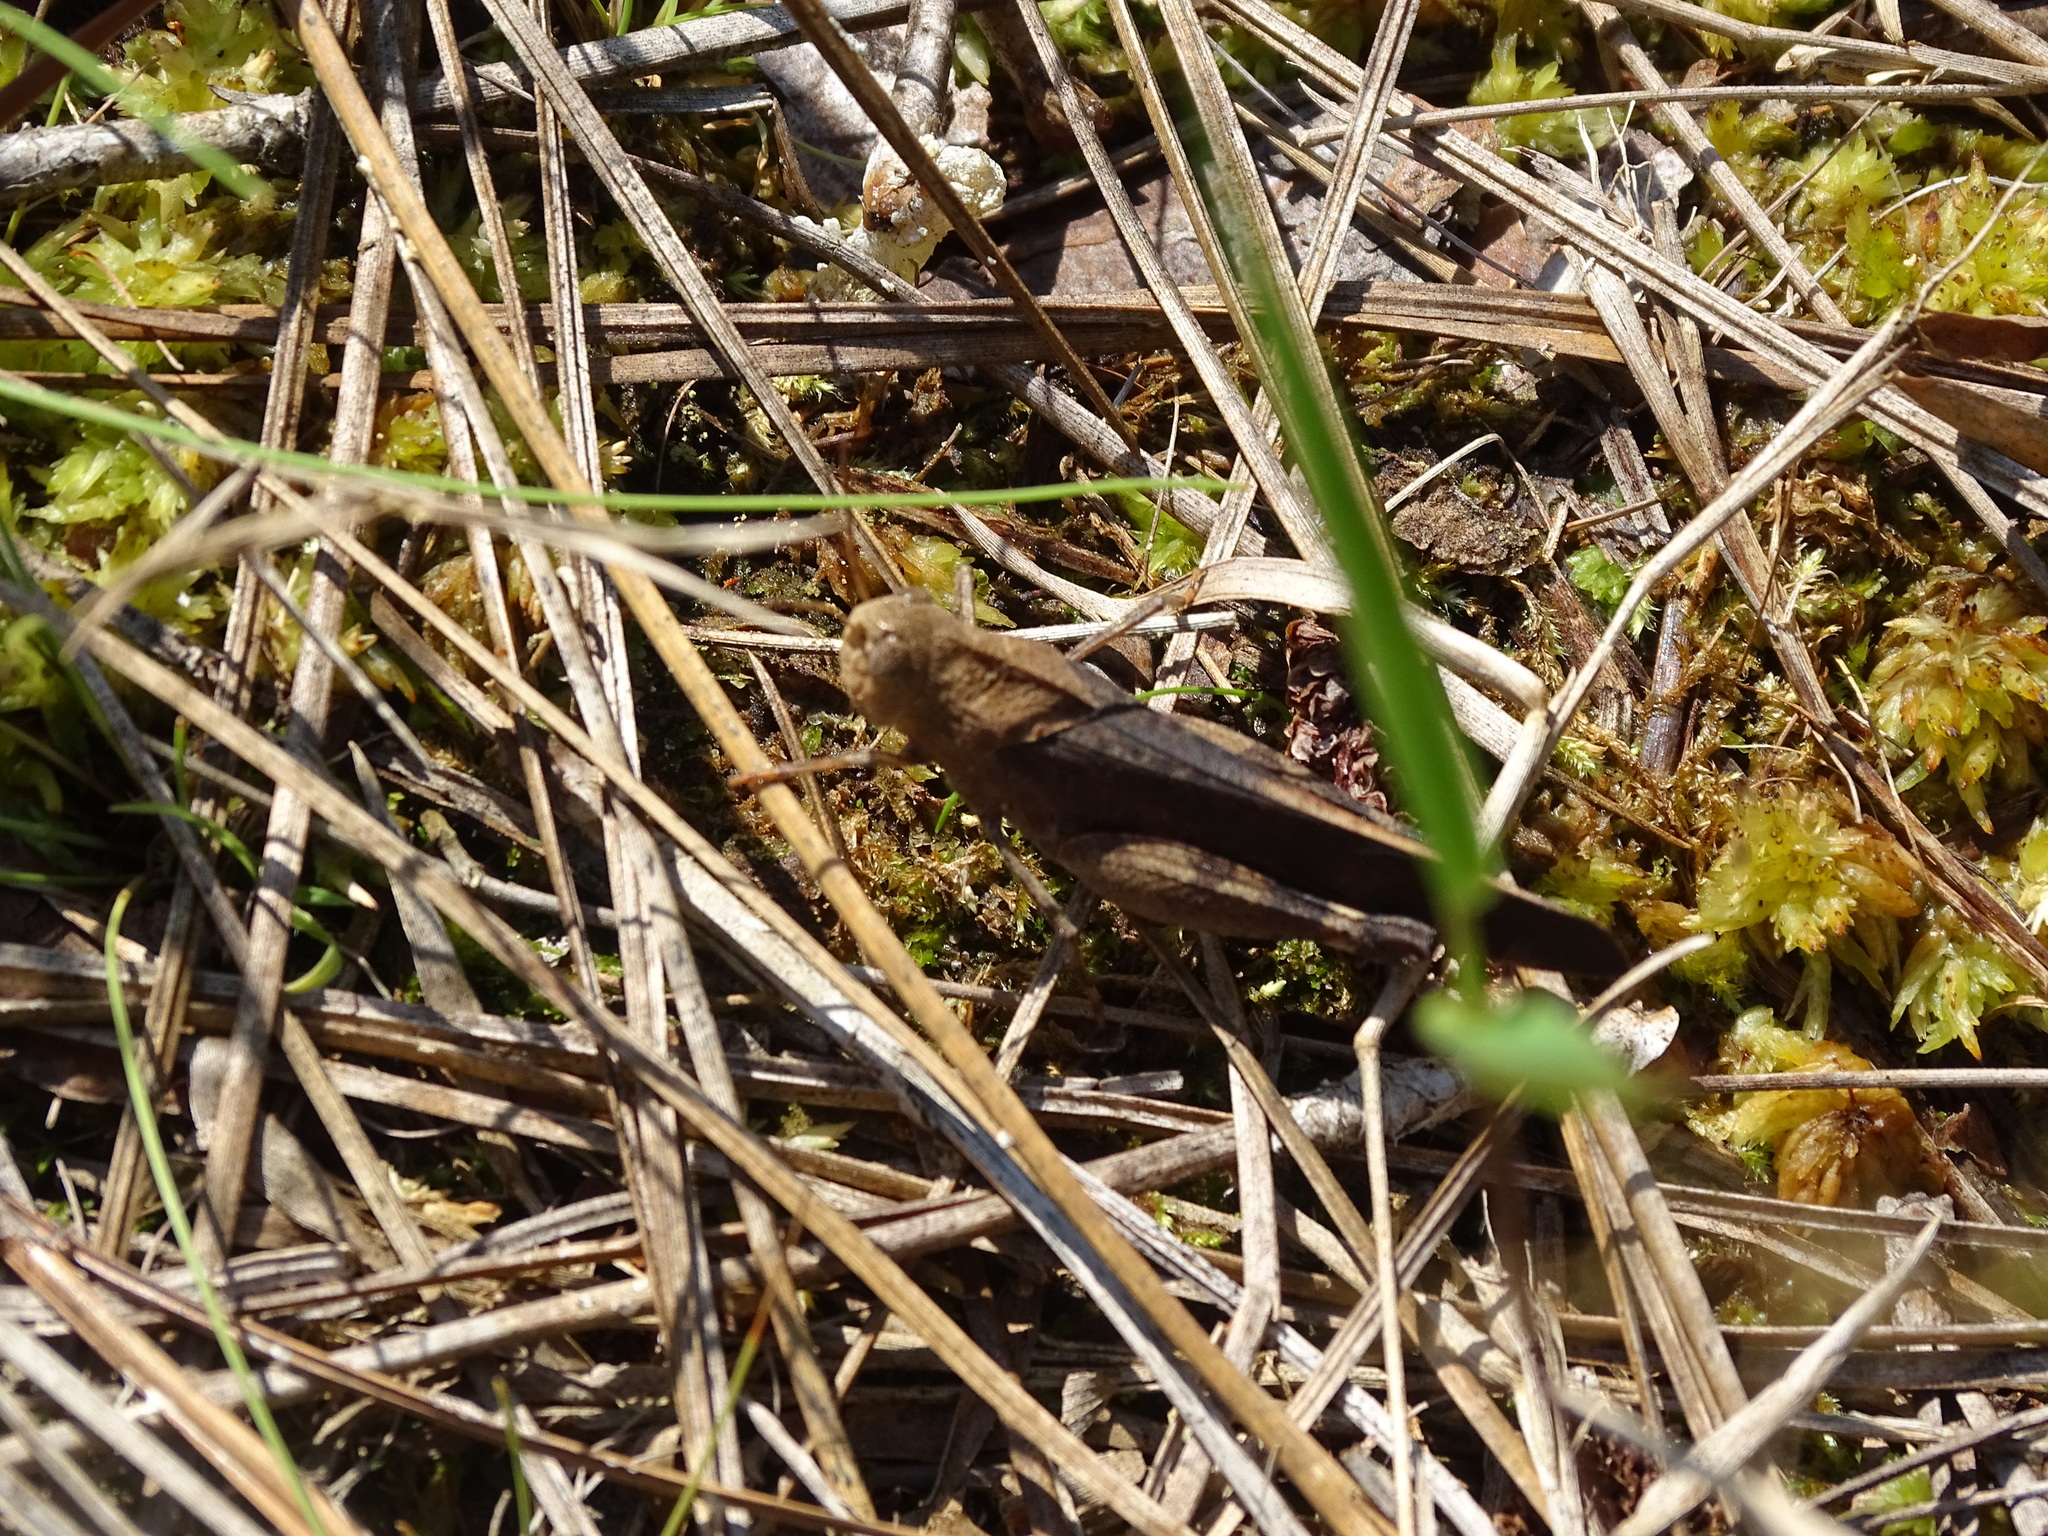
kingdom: Animalia
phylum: Arthropoda
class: Insecta
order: Orthoptera
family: Acrididae
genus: Arphia
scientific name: Arphia granulata
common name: Southern yellow-winged grasshopper
